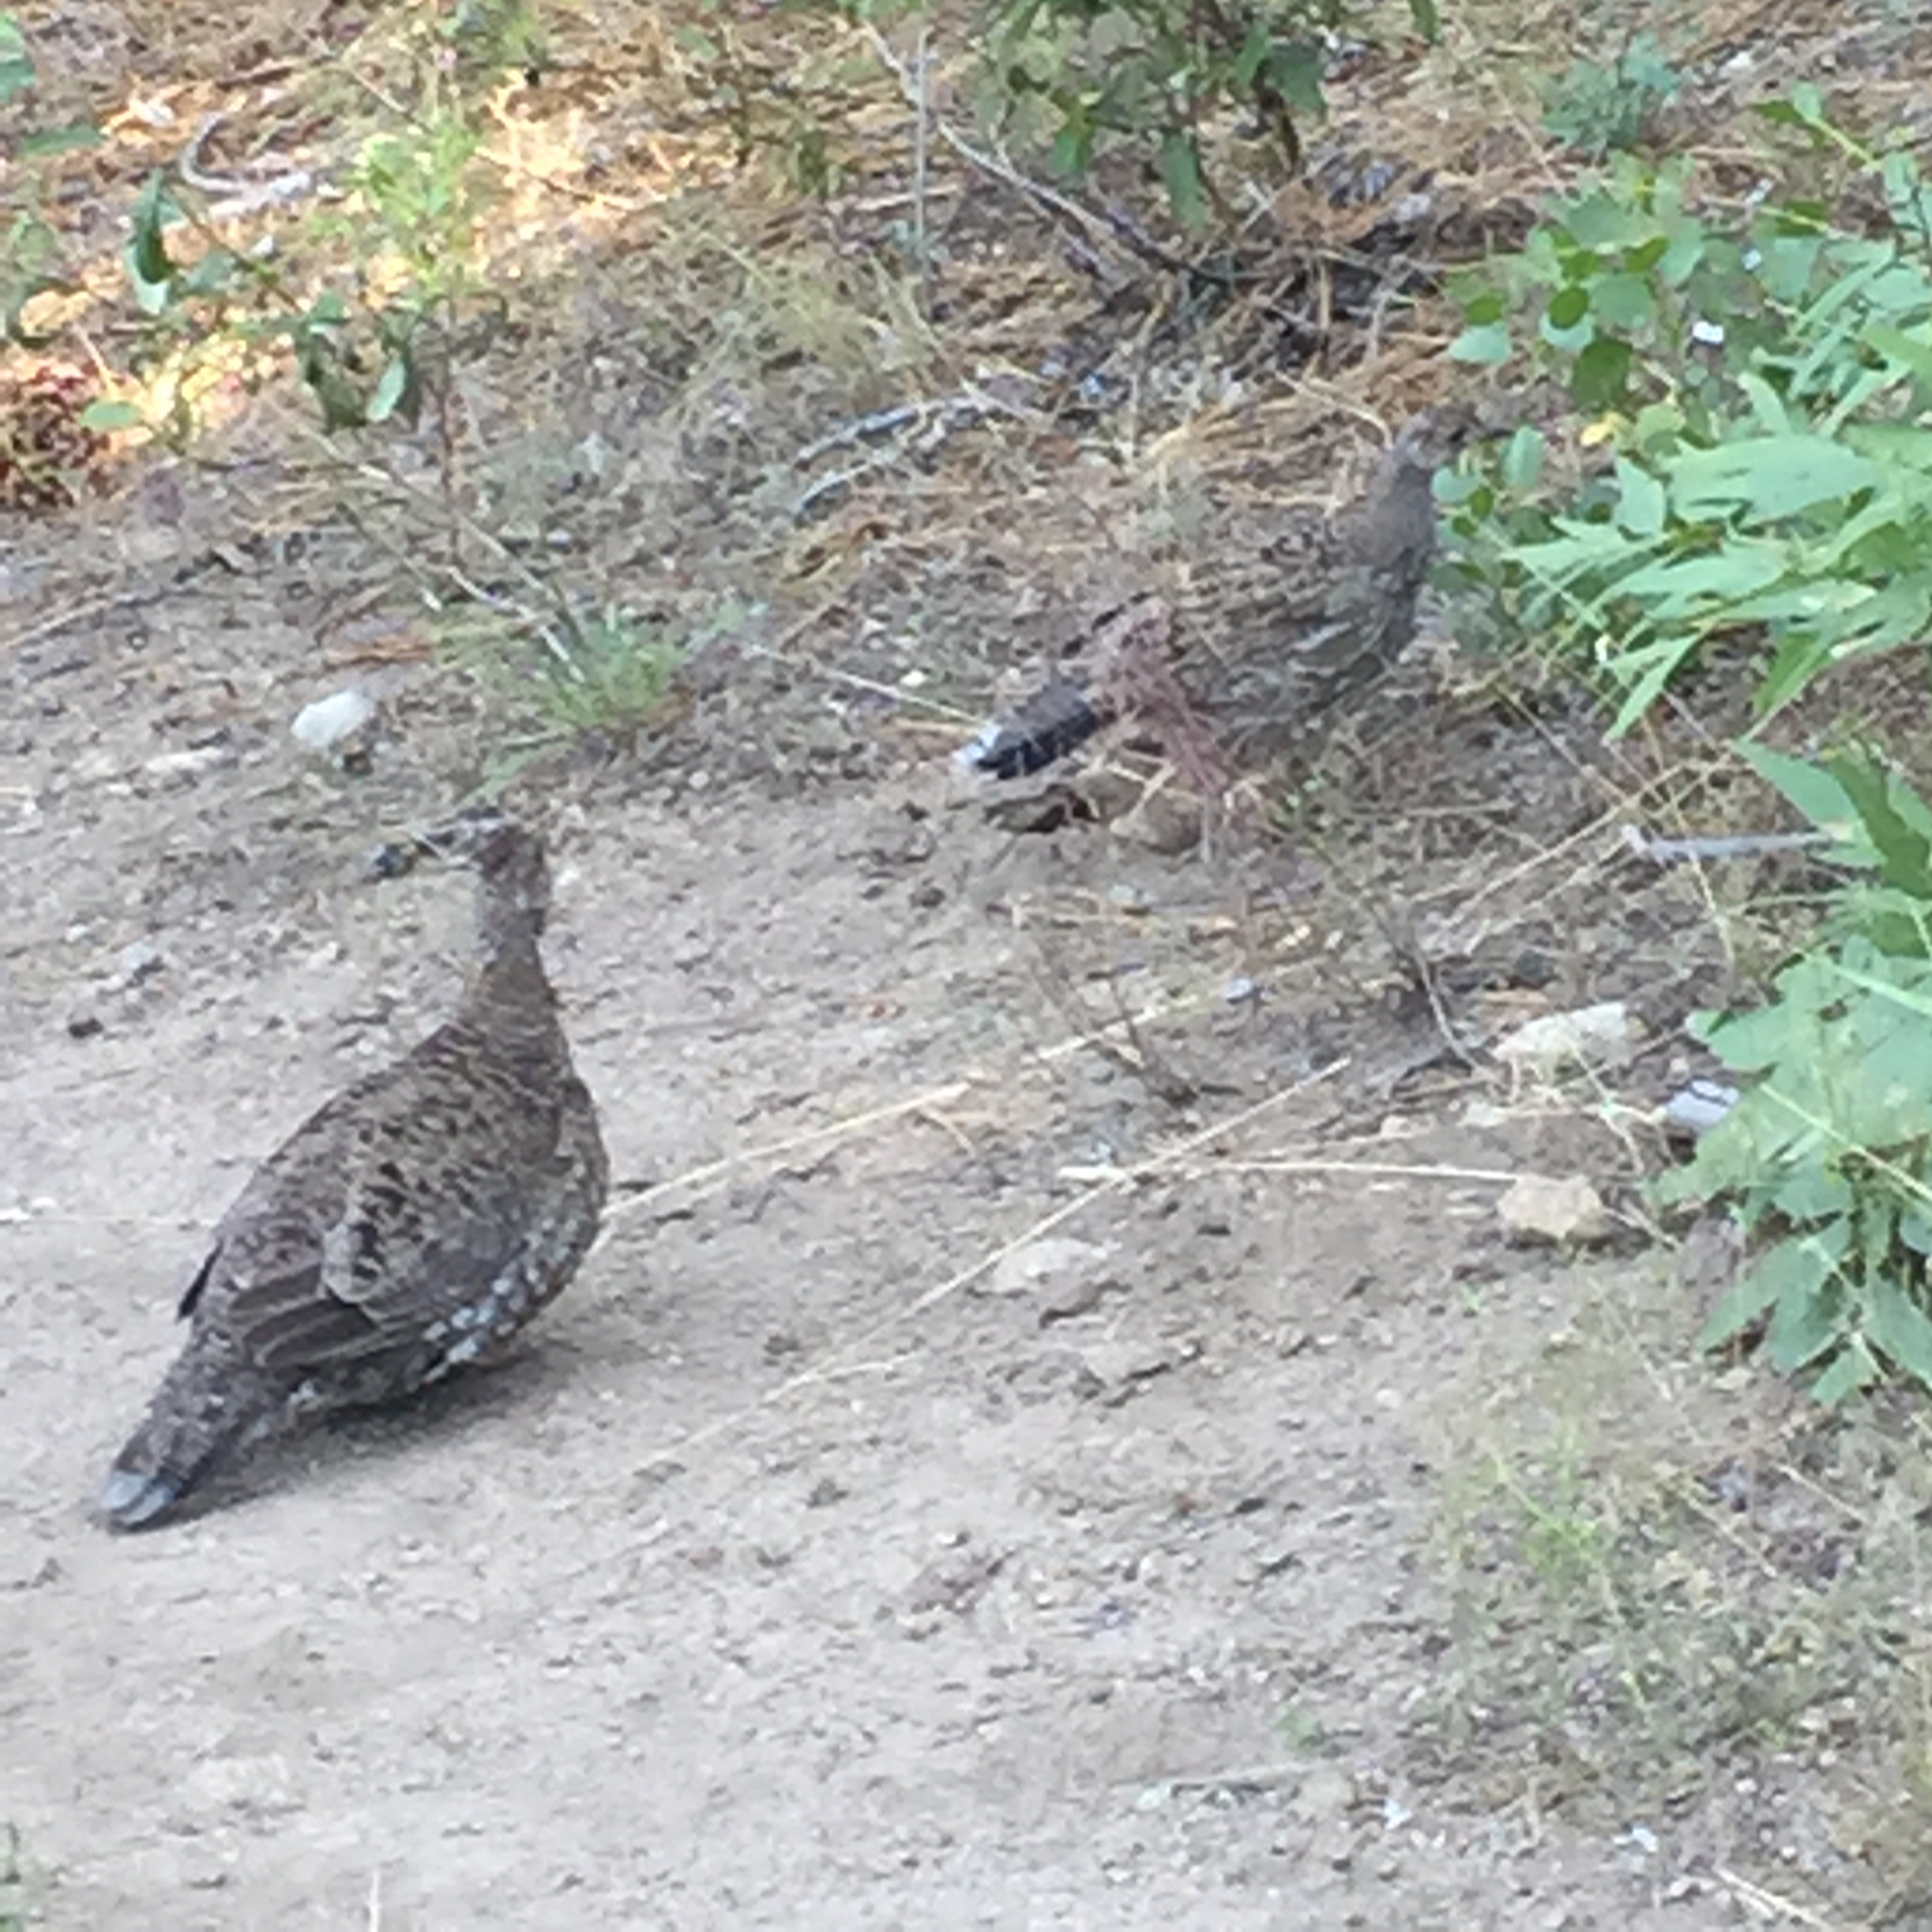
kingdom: Animalia
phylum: Chordata
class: Aves
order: Galliformes
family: Phasianidae
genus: Dendragapus
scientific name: Dendragapus fuliginosus
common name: Sooty grouse
